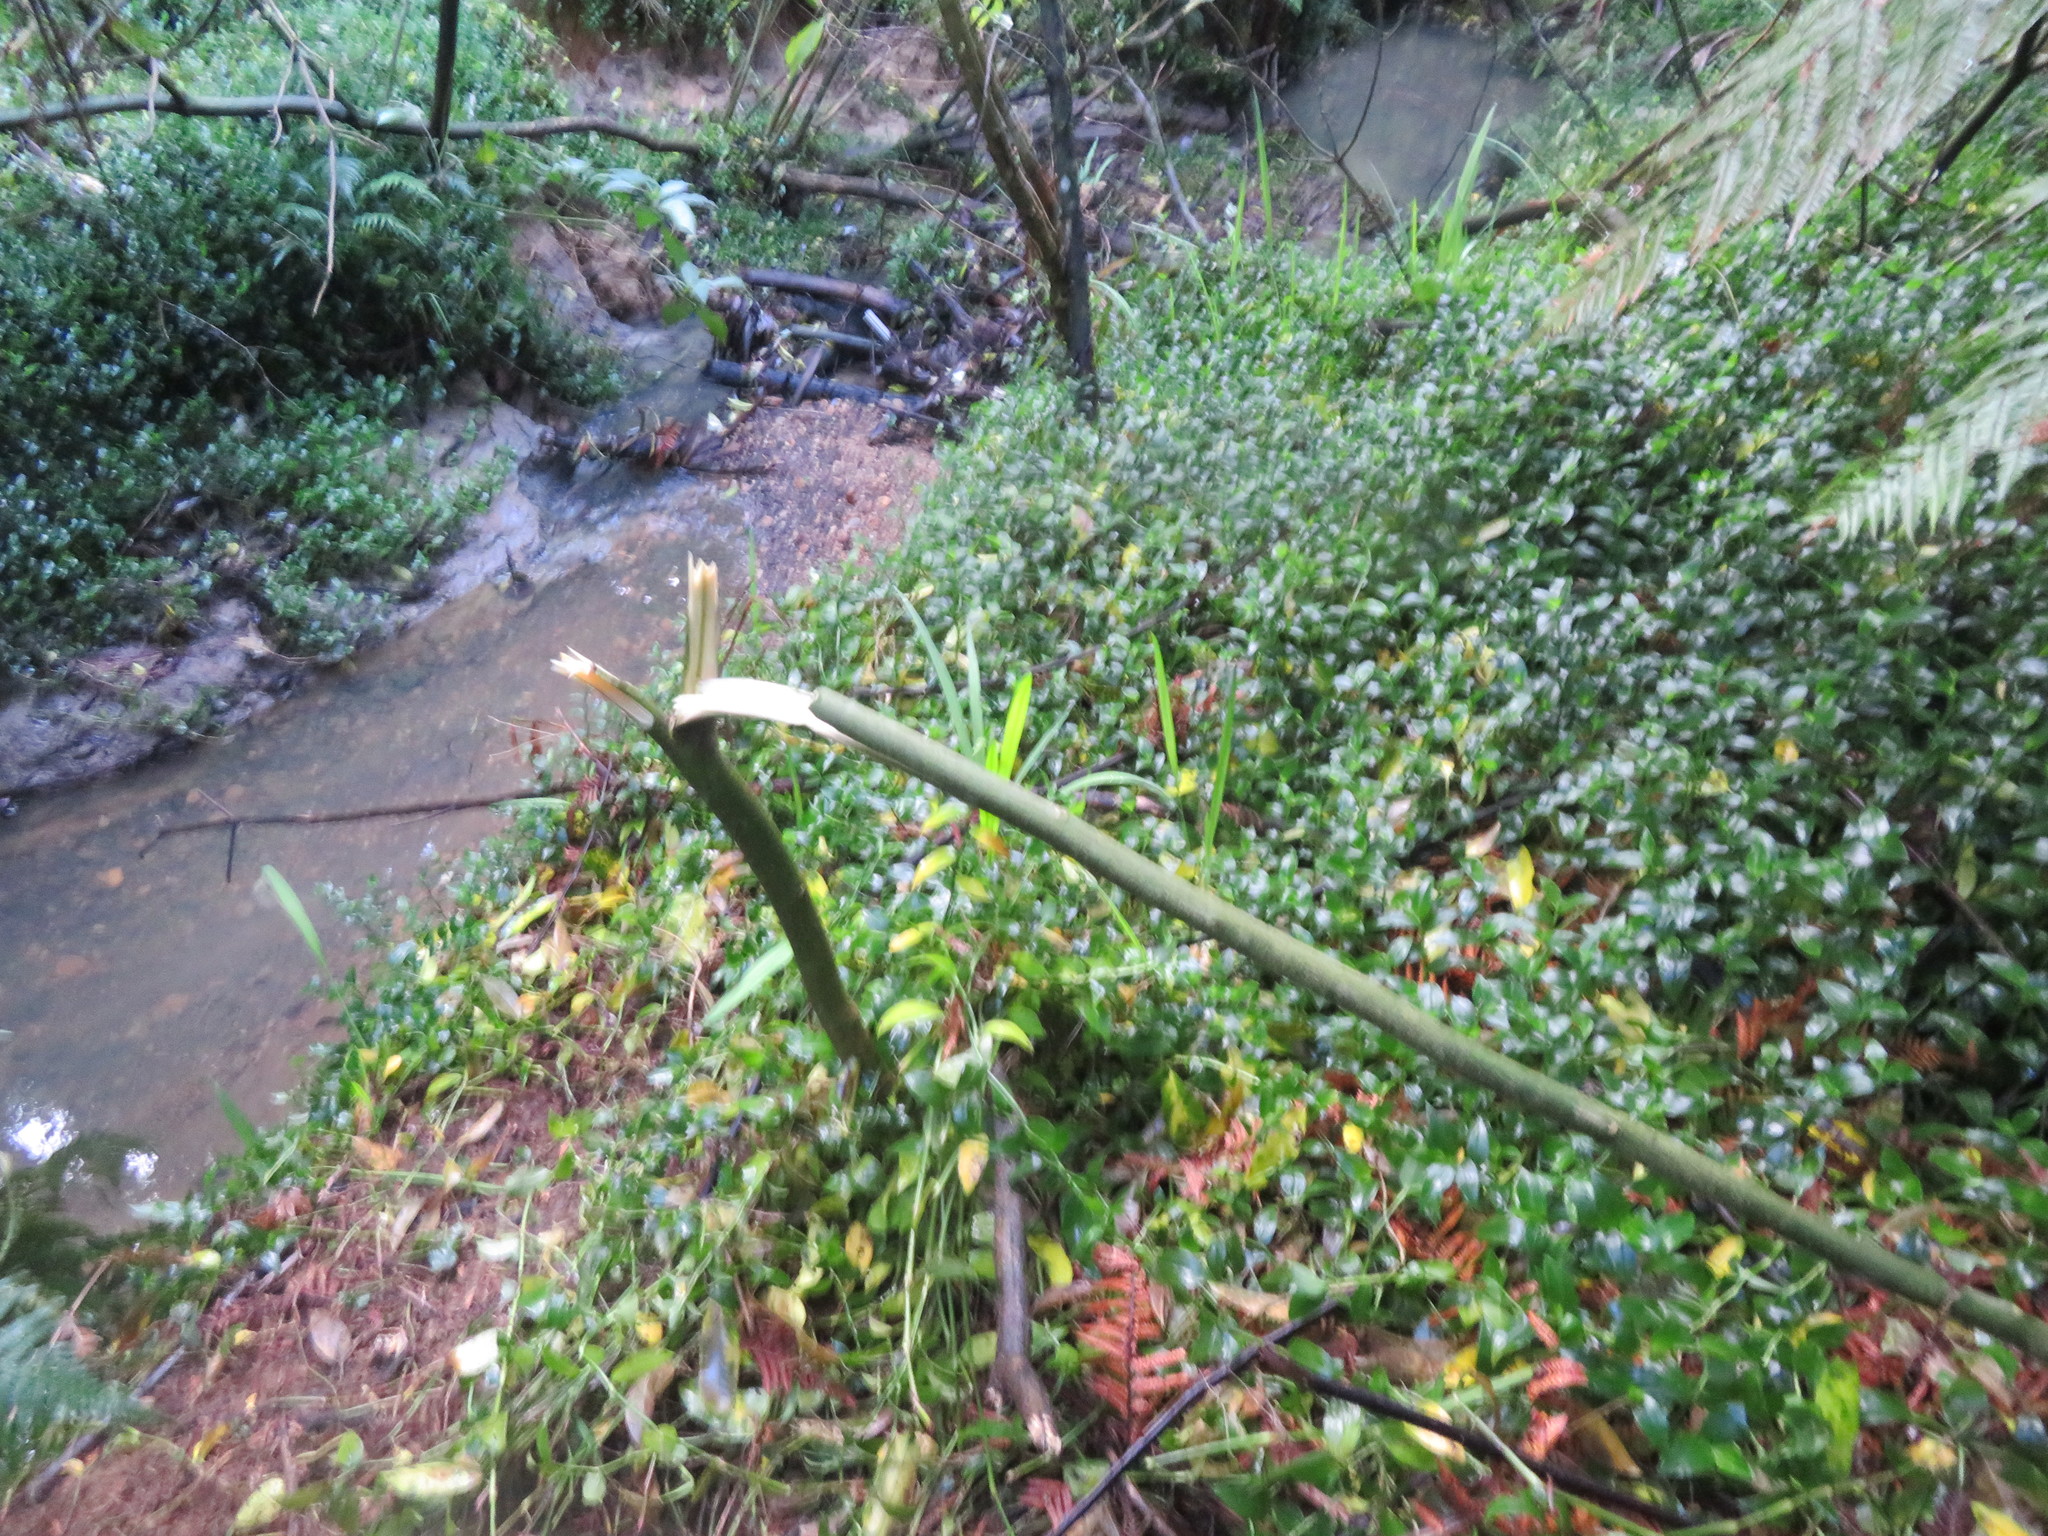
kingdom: Plantae
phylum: Tracheophyta
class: Magnoliopsida
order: Solanales
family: Solanaceae
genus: Solanum
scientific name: Solanum mauritianum
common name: Earleaf nightshade
